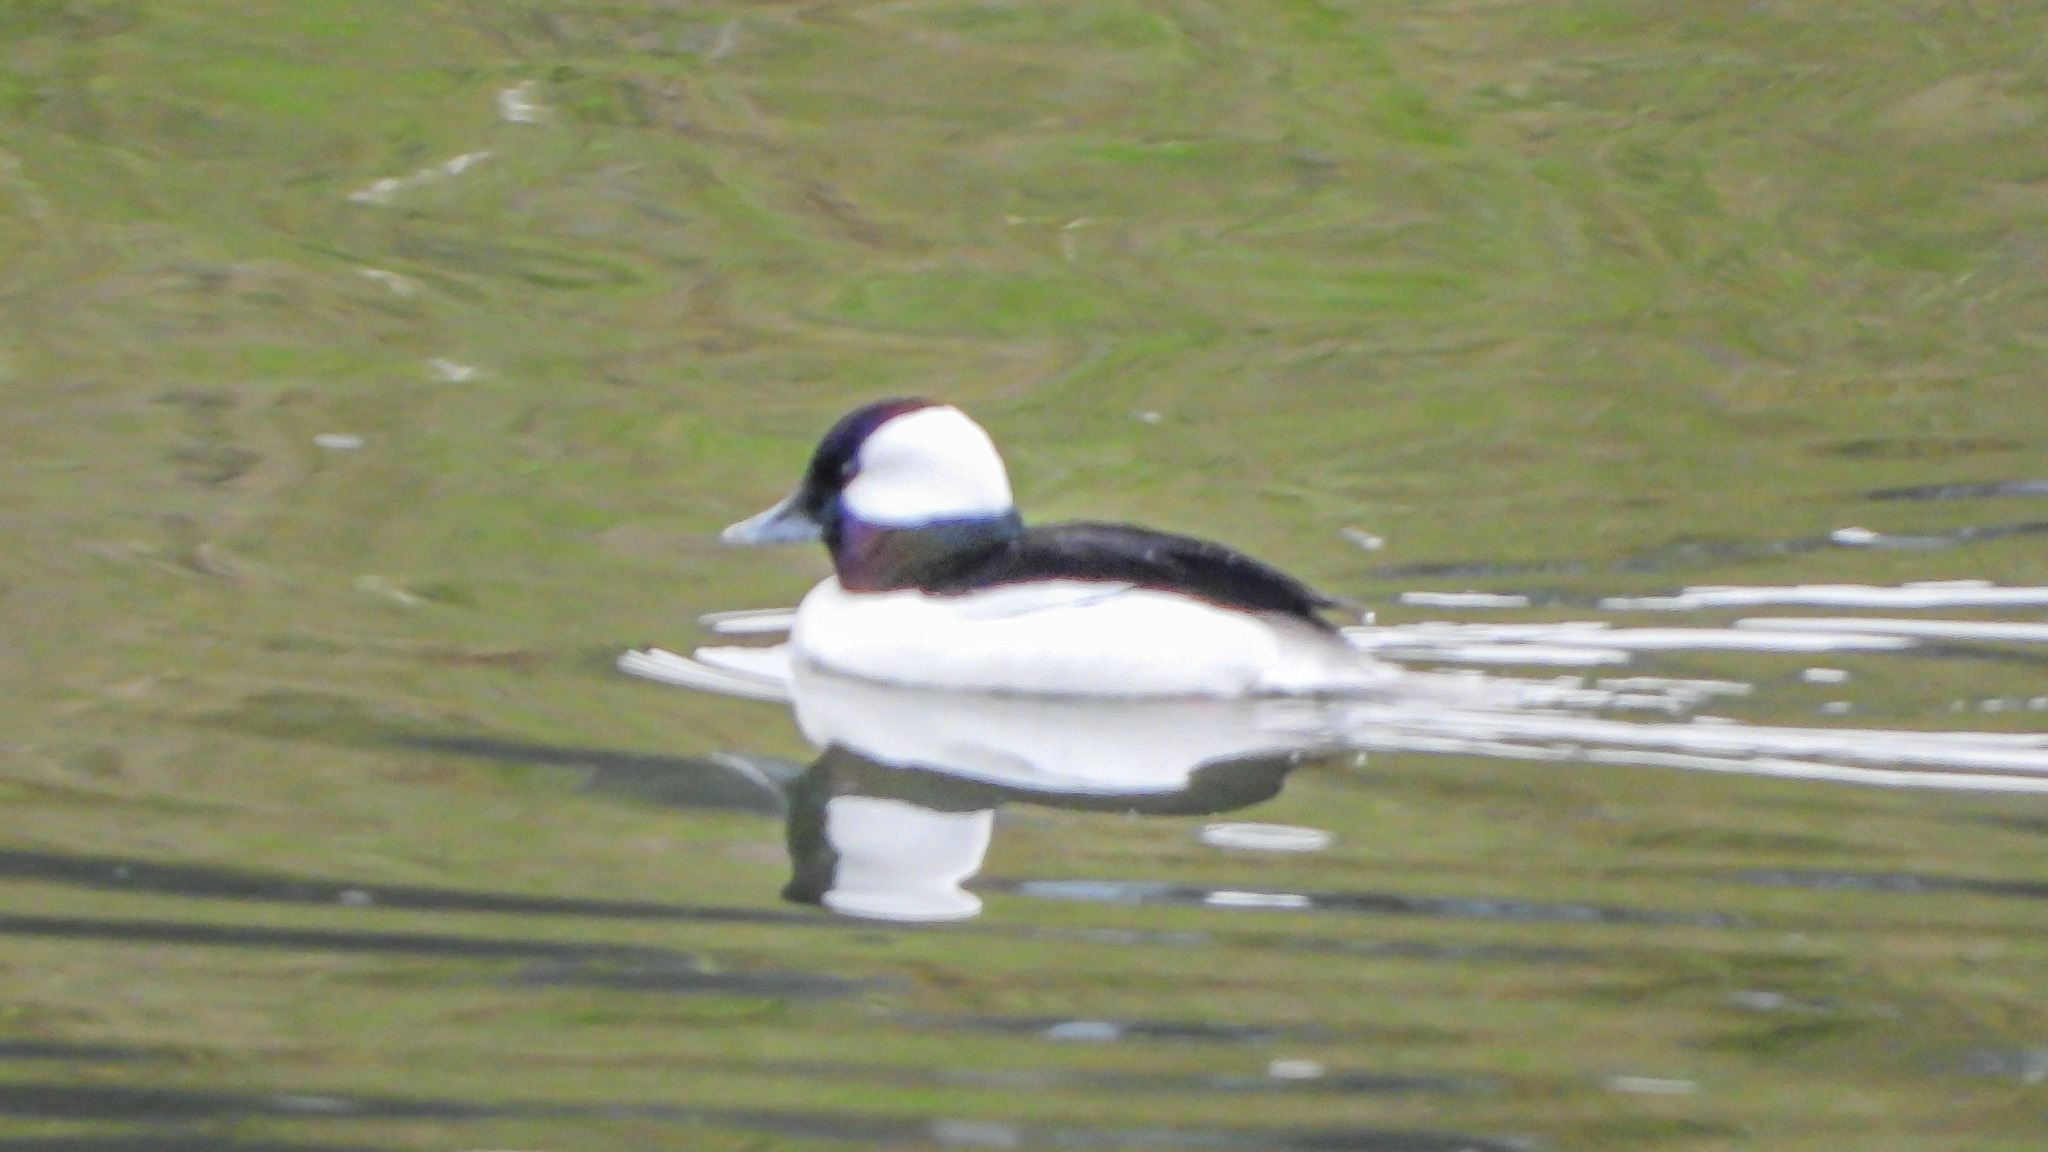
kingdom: Animalia
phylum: Chordata
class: Aves
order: Anseriformes
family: Anatidae
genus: Bucephala
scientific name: Bucephala albeola
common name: Bufflehead
